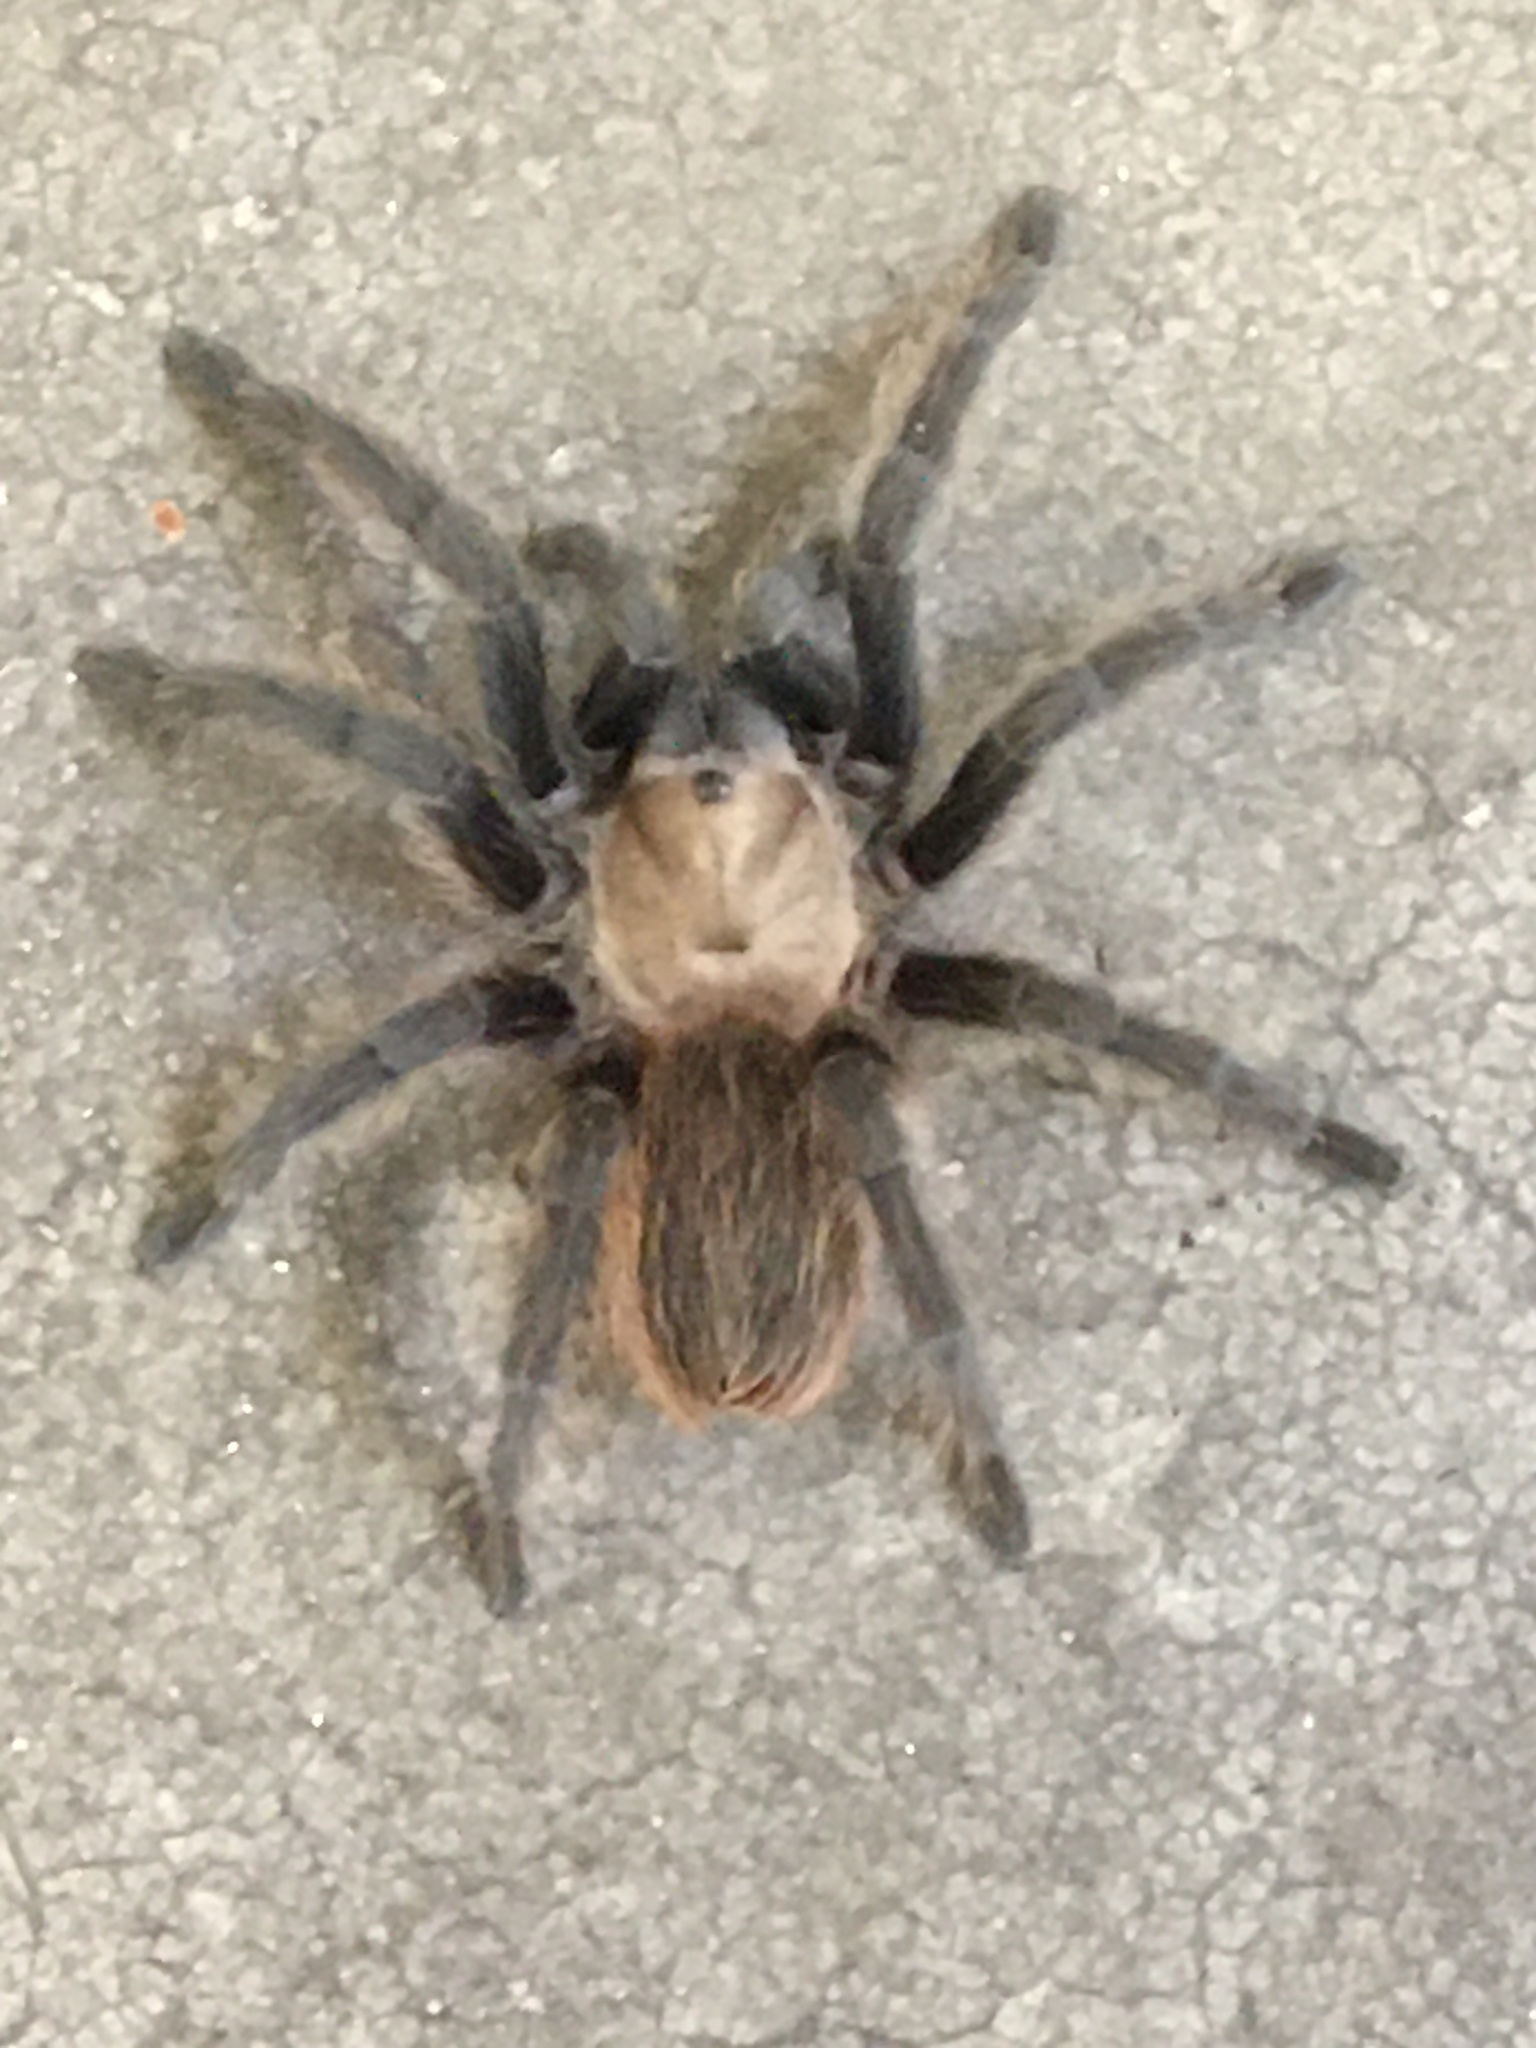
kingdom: Animalia
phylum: Arthropoda
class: Arachnida
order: Araneae
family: Theraphosidae
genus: Aphonopelma
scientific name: Aphonopelma hentzi
